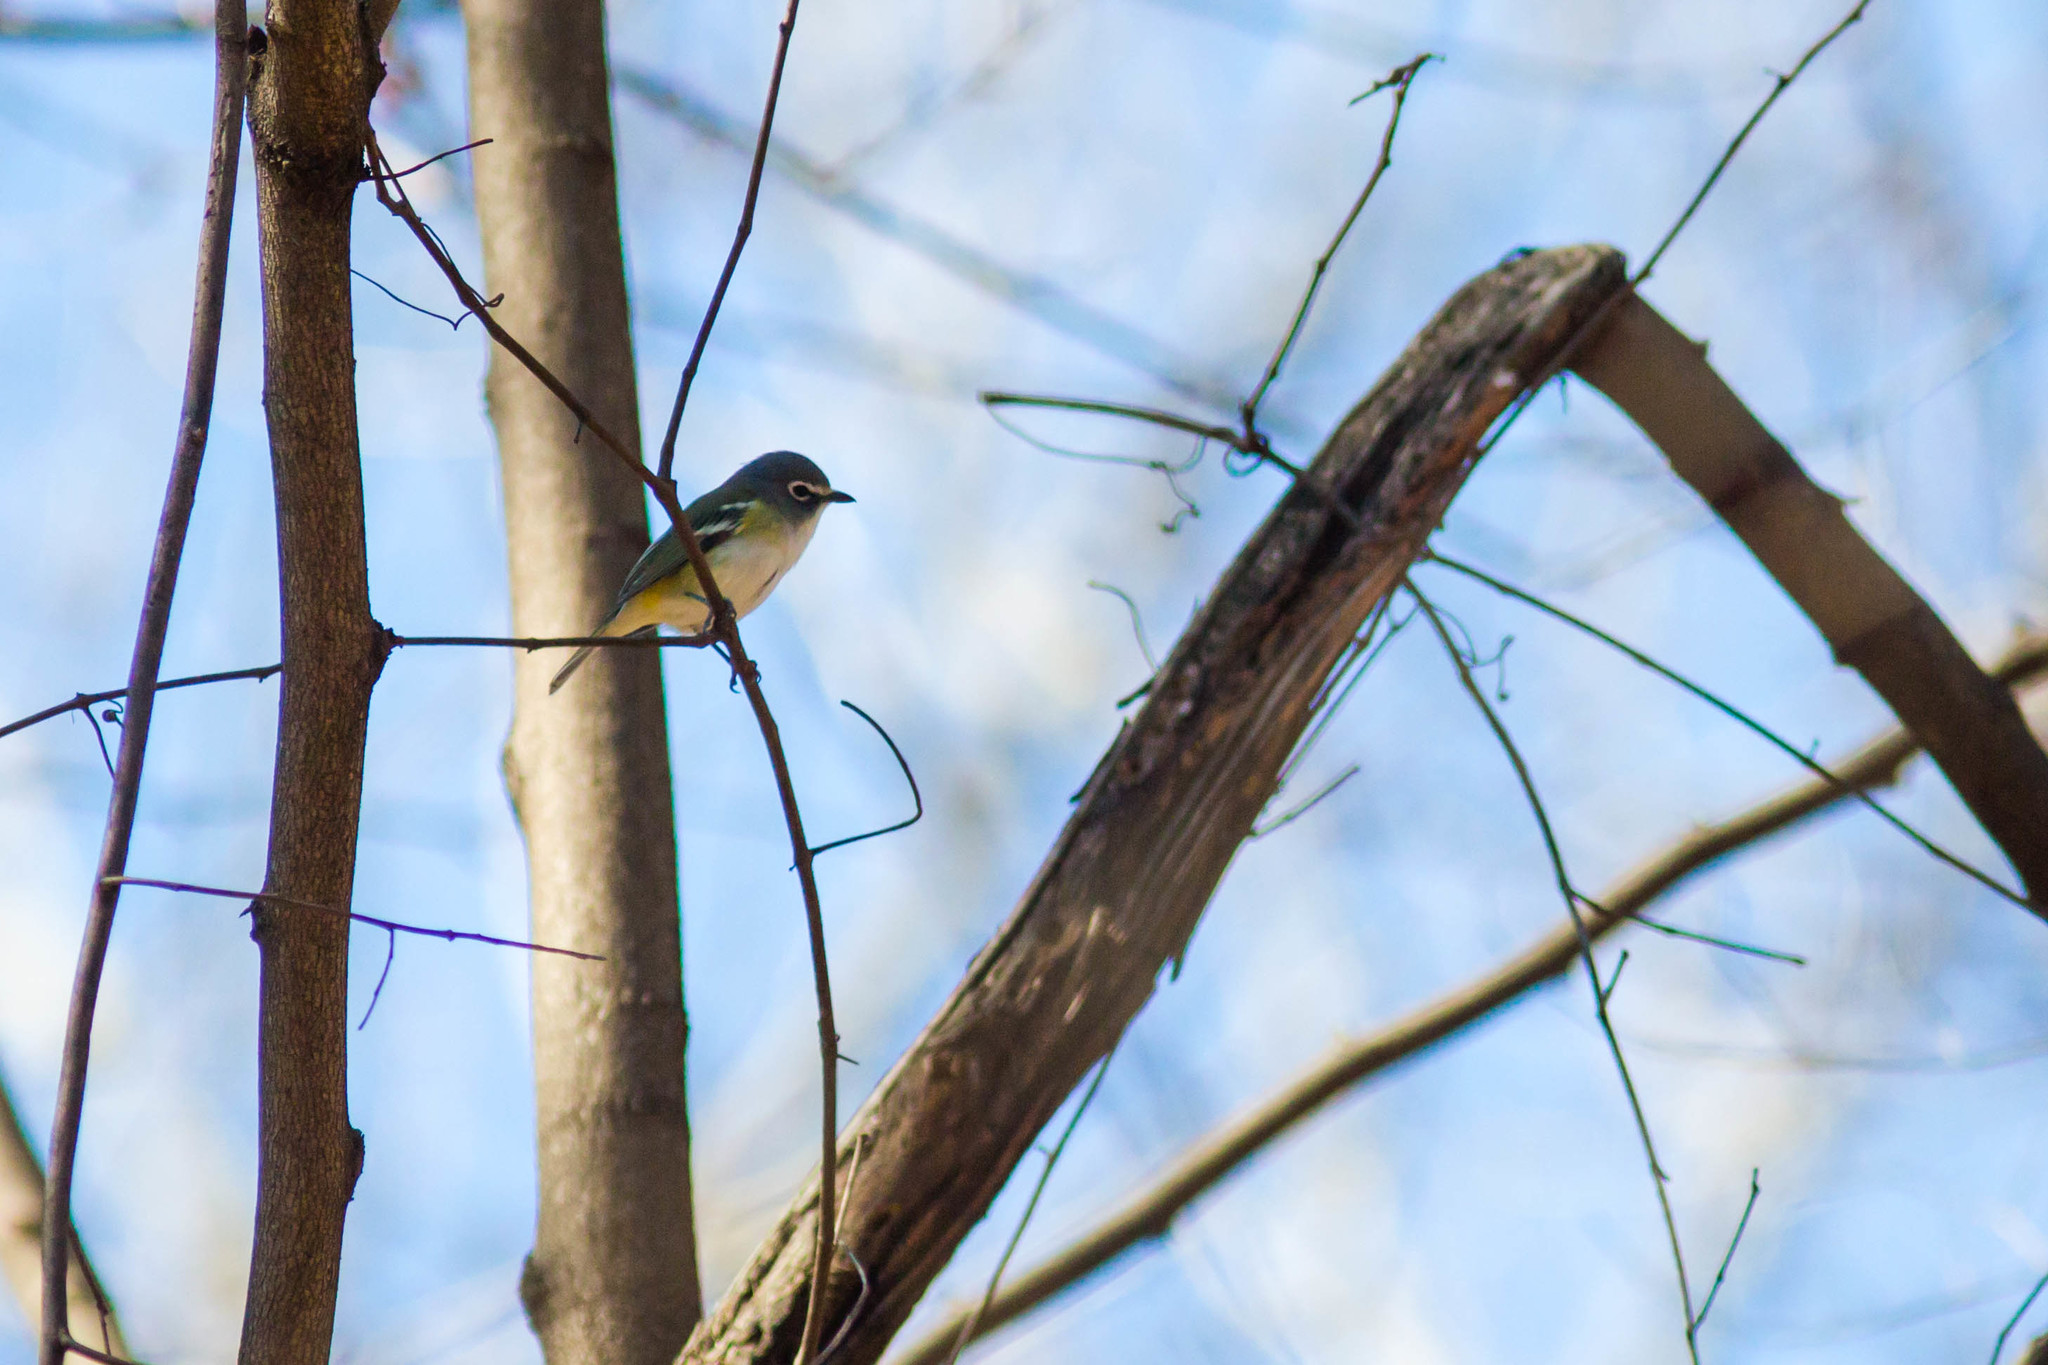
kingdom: Animalia
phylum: Chordata
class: Aves
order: Passeriformes
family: Vireonidae
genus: Vireo
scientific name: Vireo solitarius
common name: Blue-headed vireo
